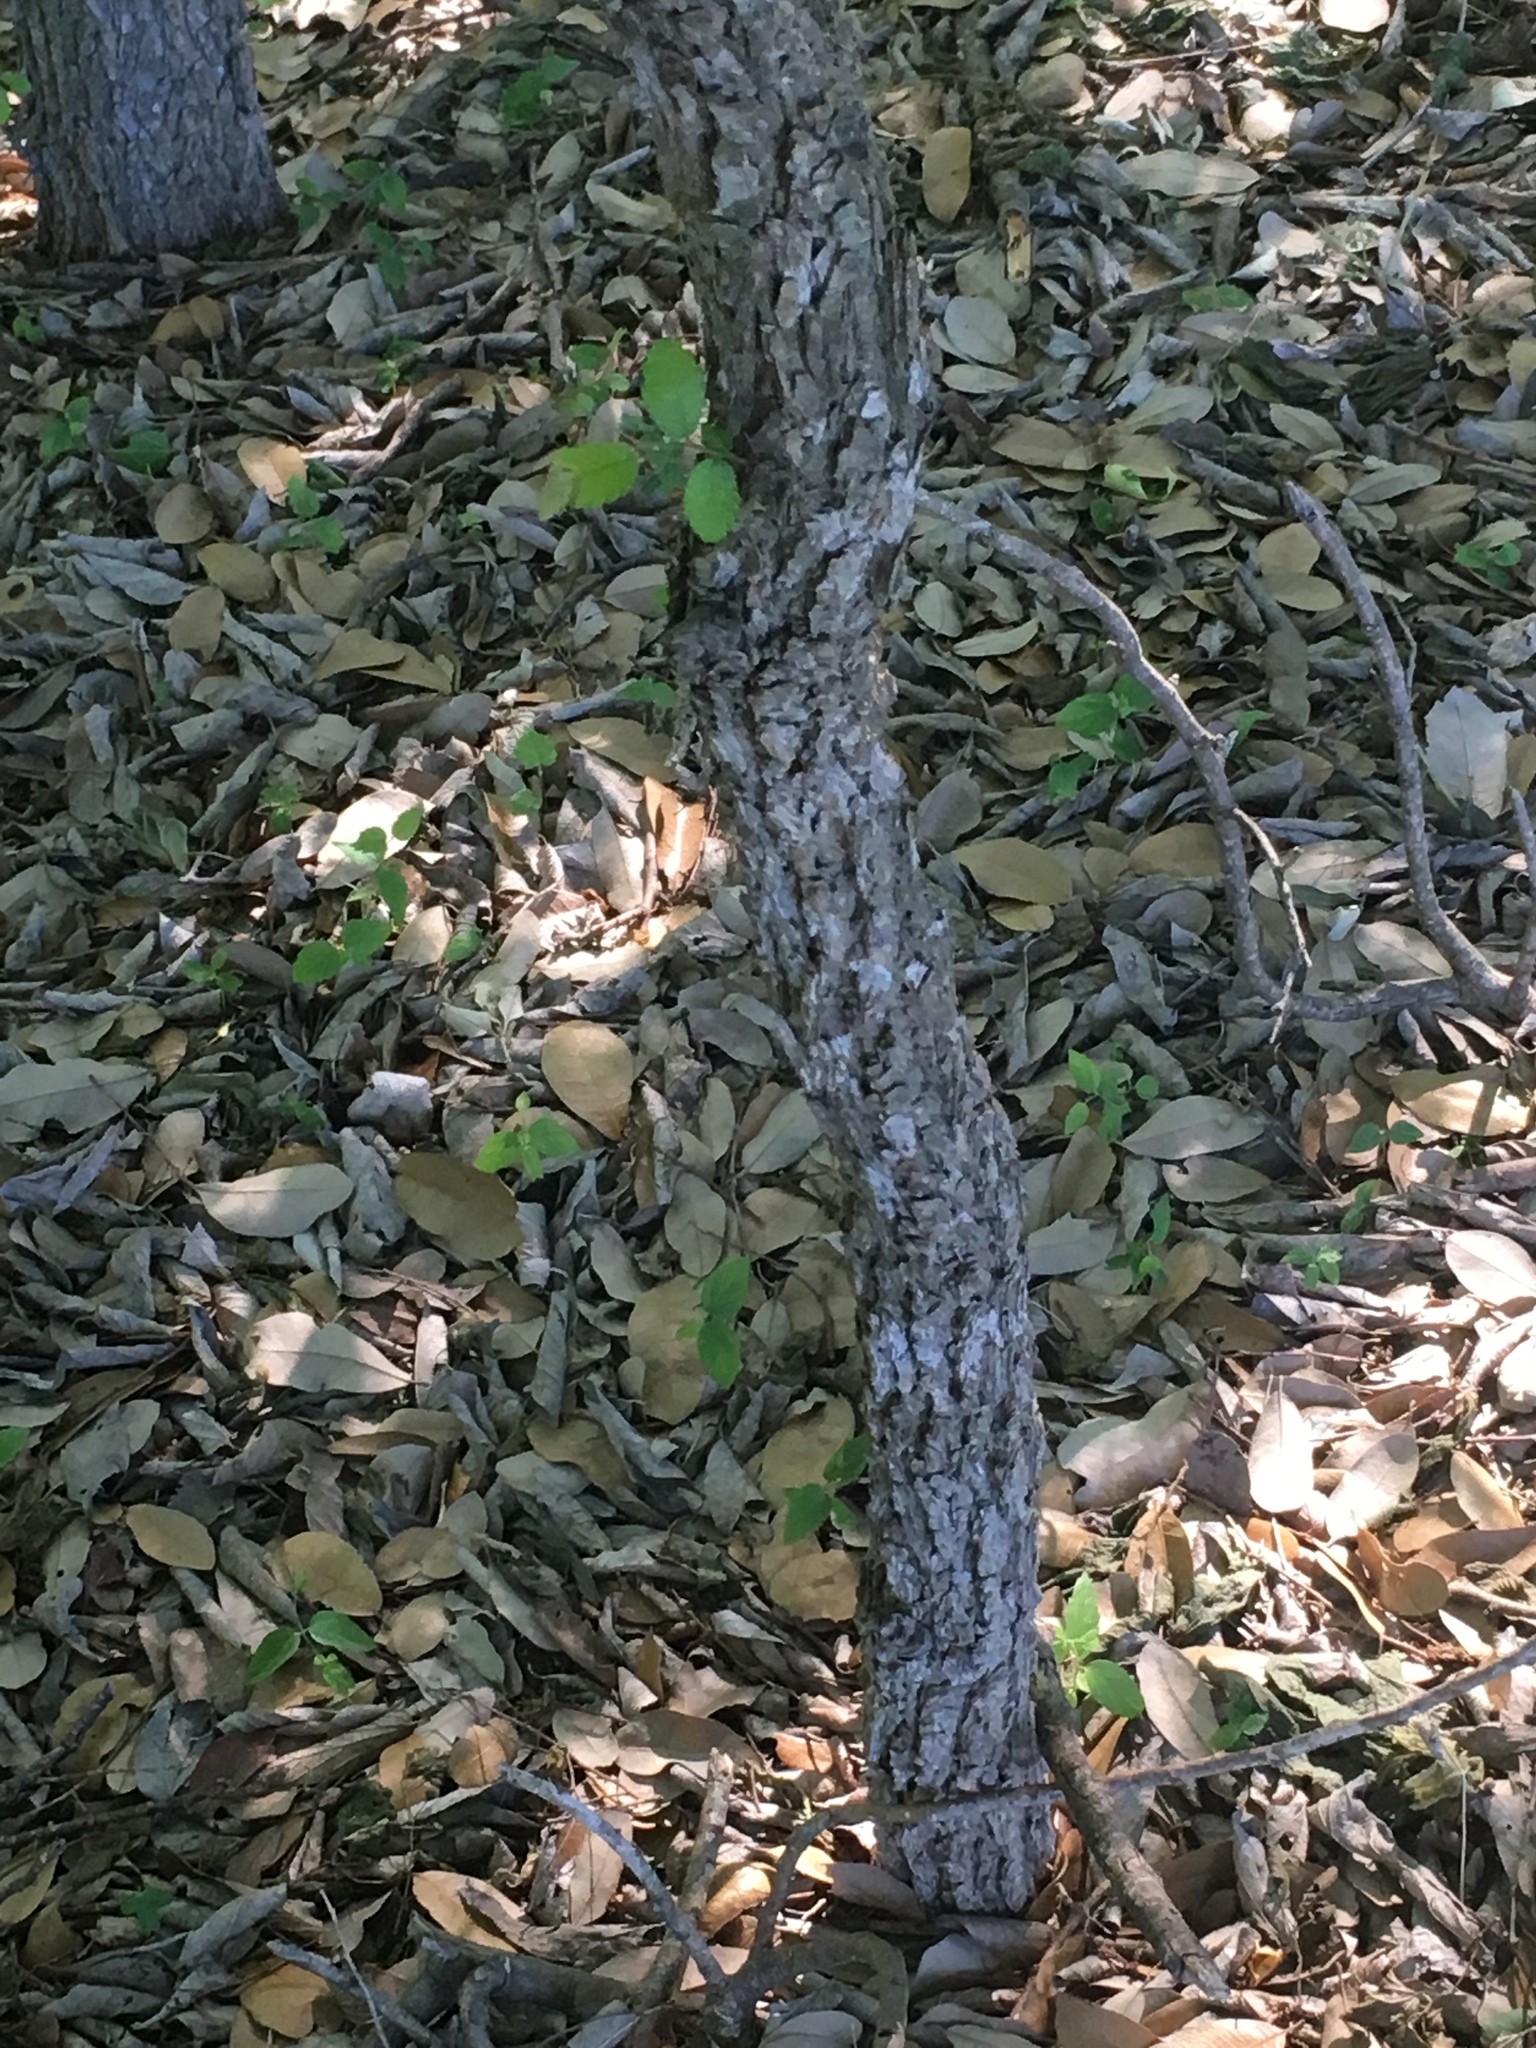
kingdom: Plantae
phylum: Tracheophyta
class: Magnoliopsida
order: Rosales
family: Ulmaceae
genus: Ulmus
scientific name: Ulmus crassifolia
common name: Basket elm
